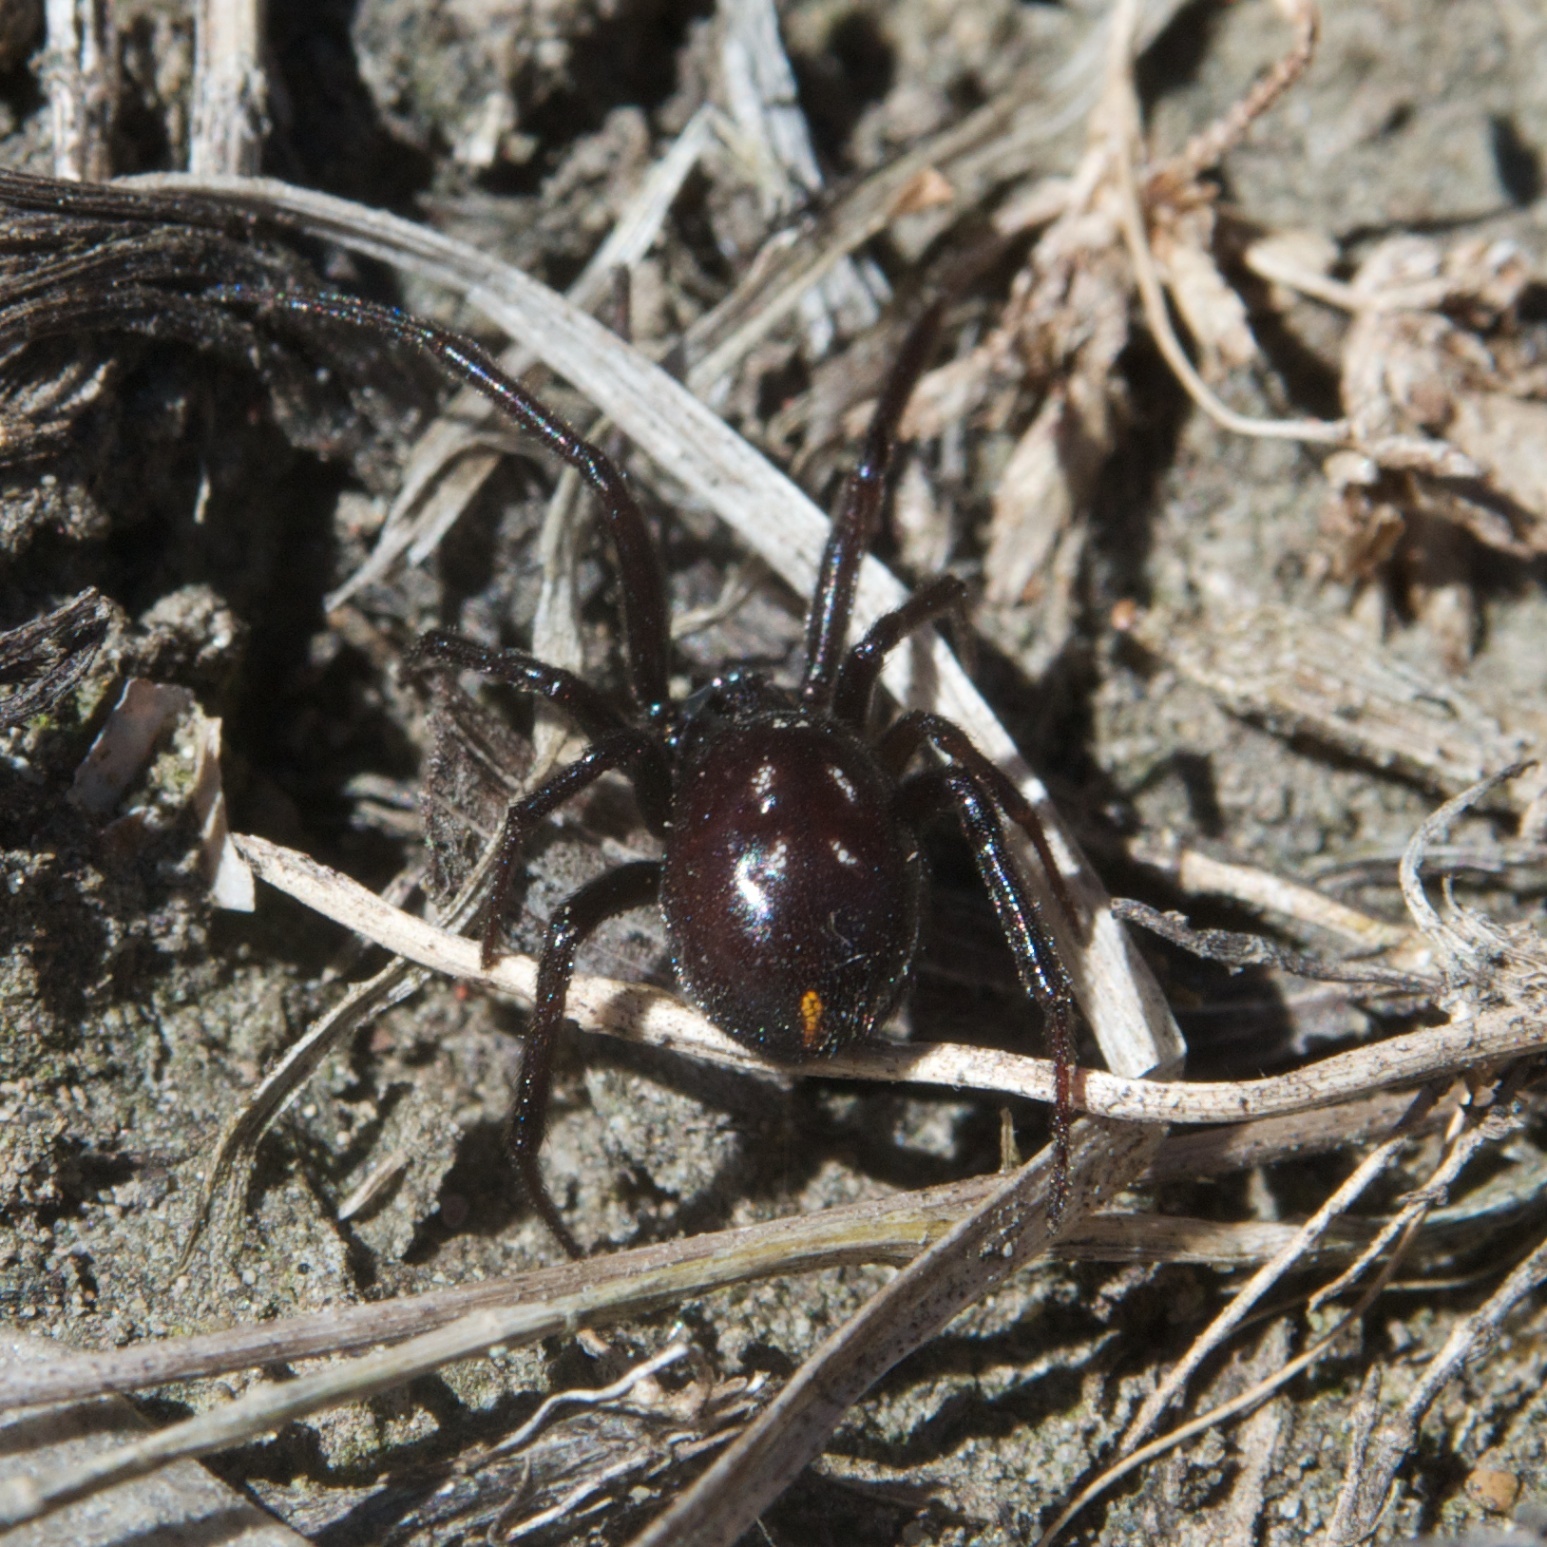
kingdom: Animalia
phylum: Arthropoda
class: Arachnida
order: Araneae
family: Theridiidae
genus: Steatoda
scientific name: Steatoda capensis
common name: Cobweb weaver
